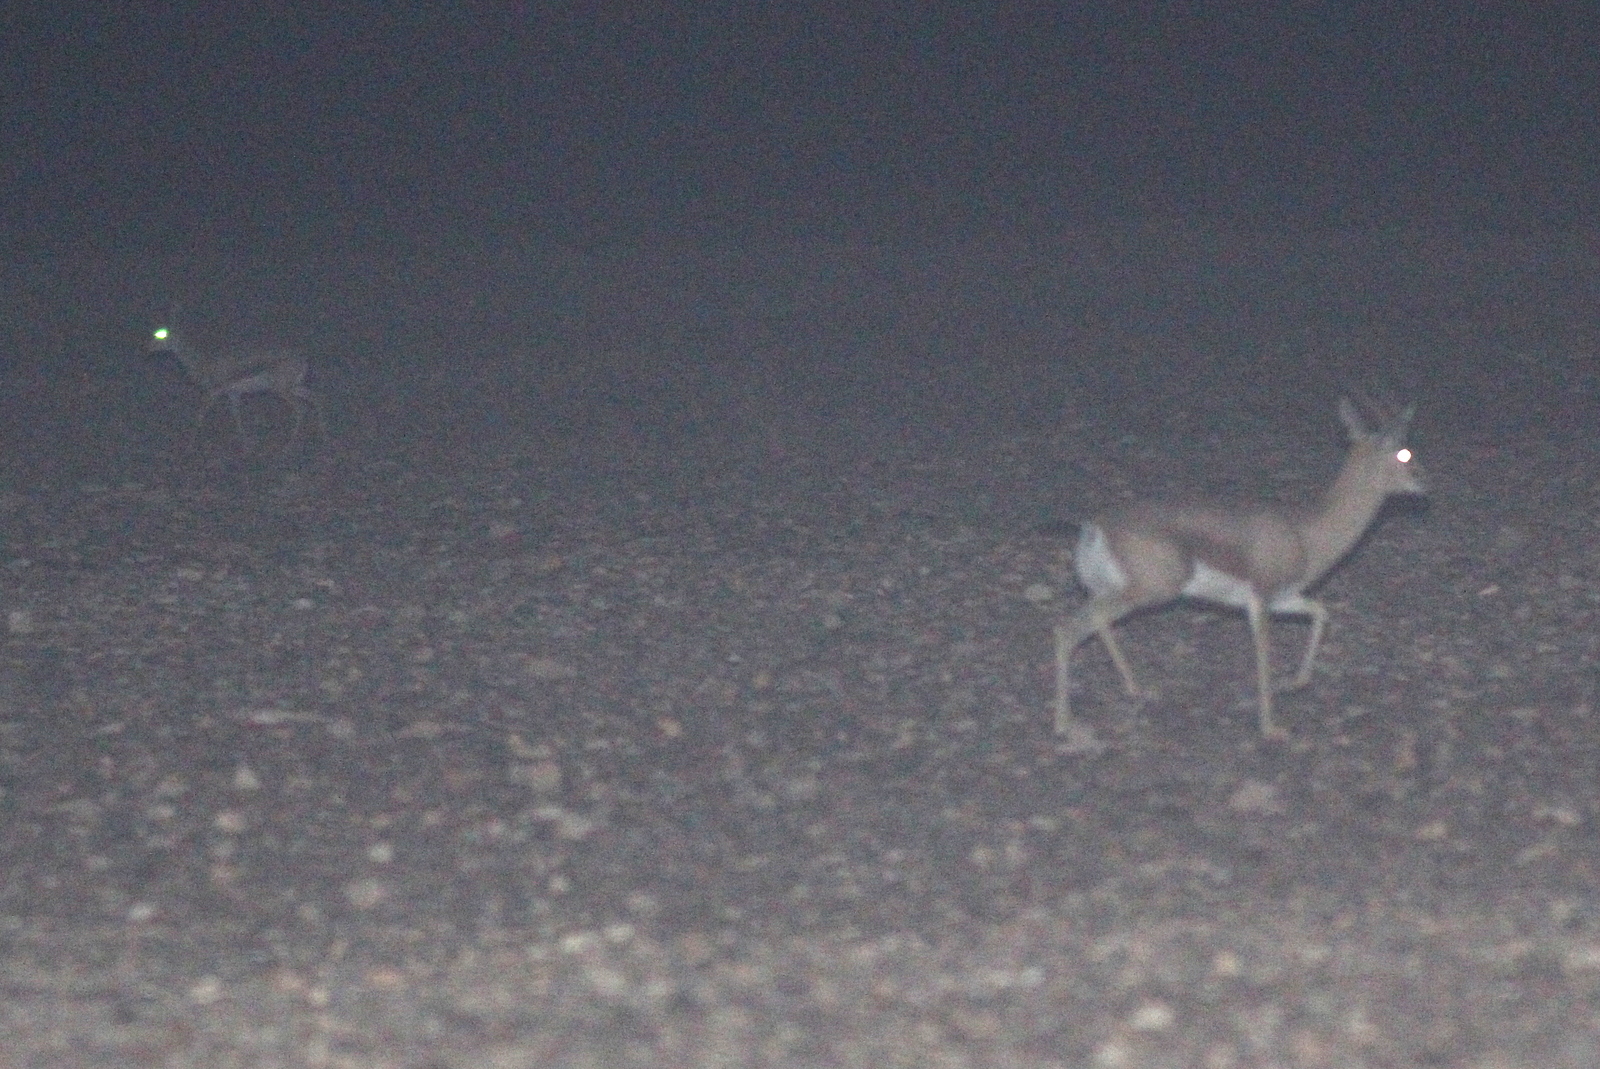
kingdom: Animalia
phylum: Chordata
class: Mammalia
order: Artiodactyla
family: Bovidae
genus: Gazella
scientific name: Gazella dorcas
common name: Dorcas gazelle
